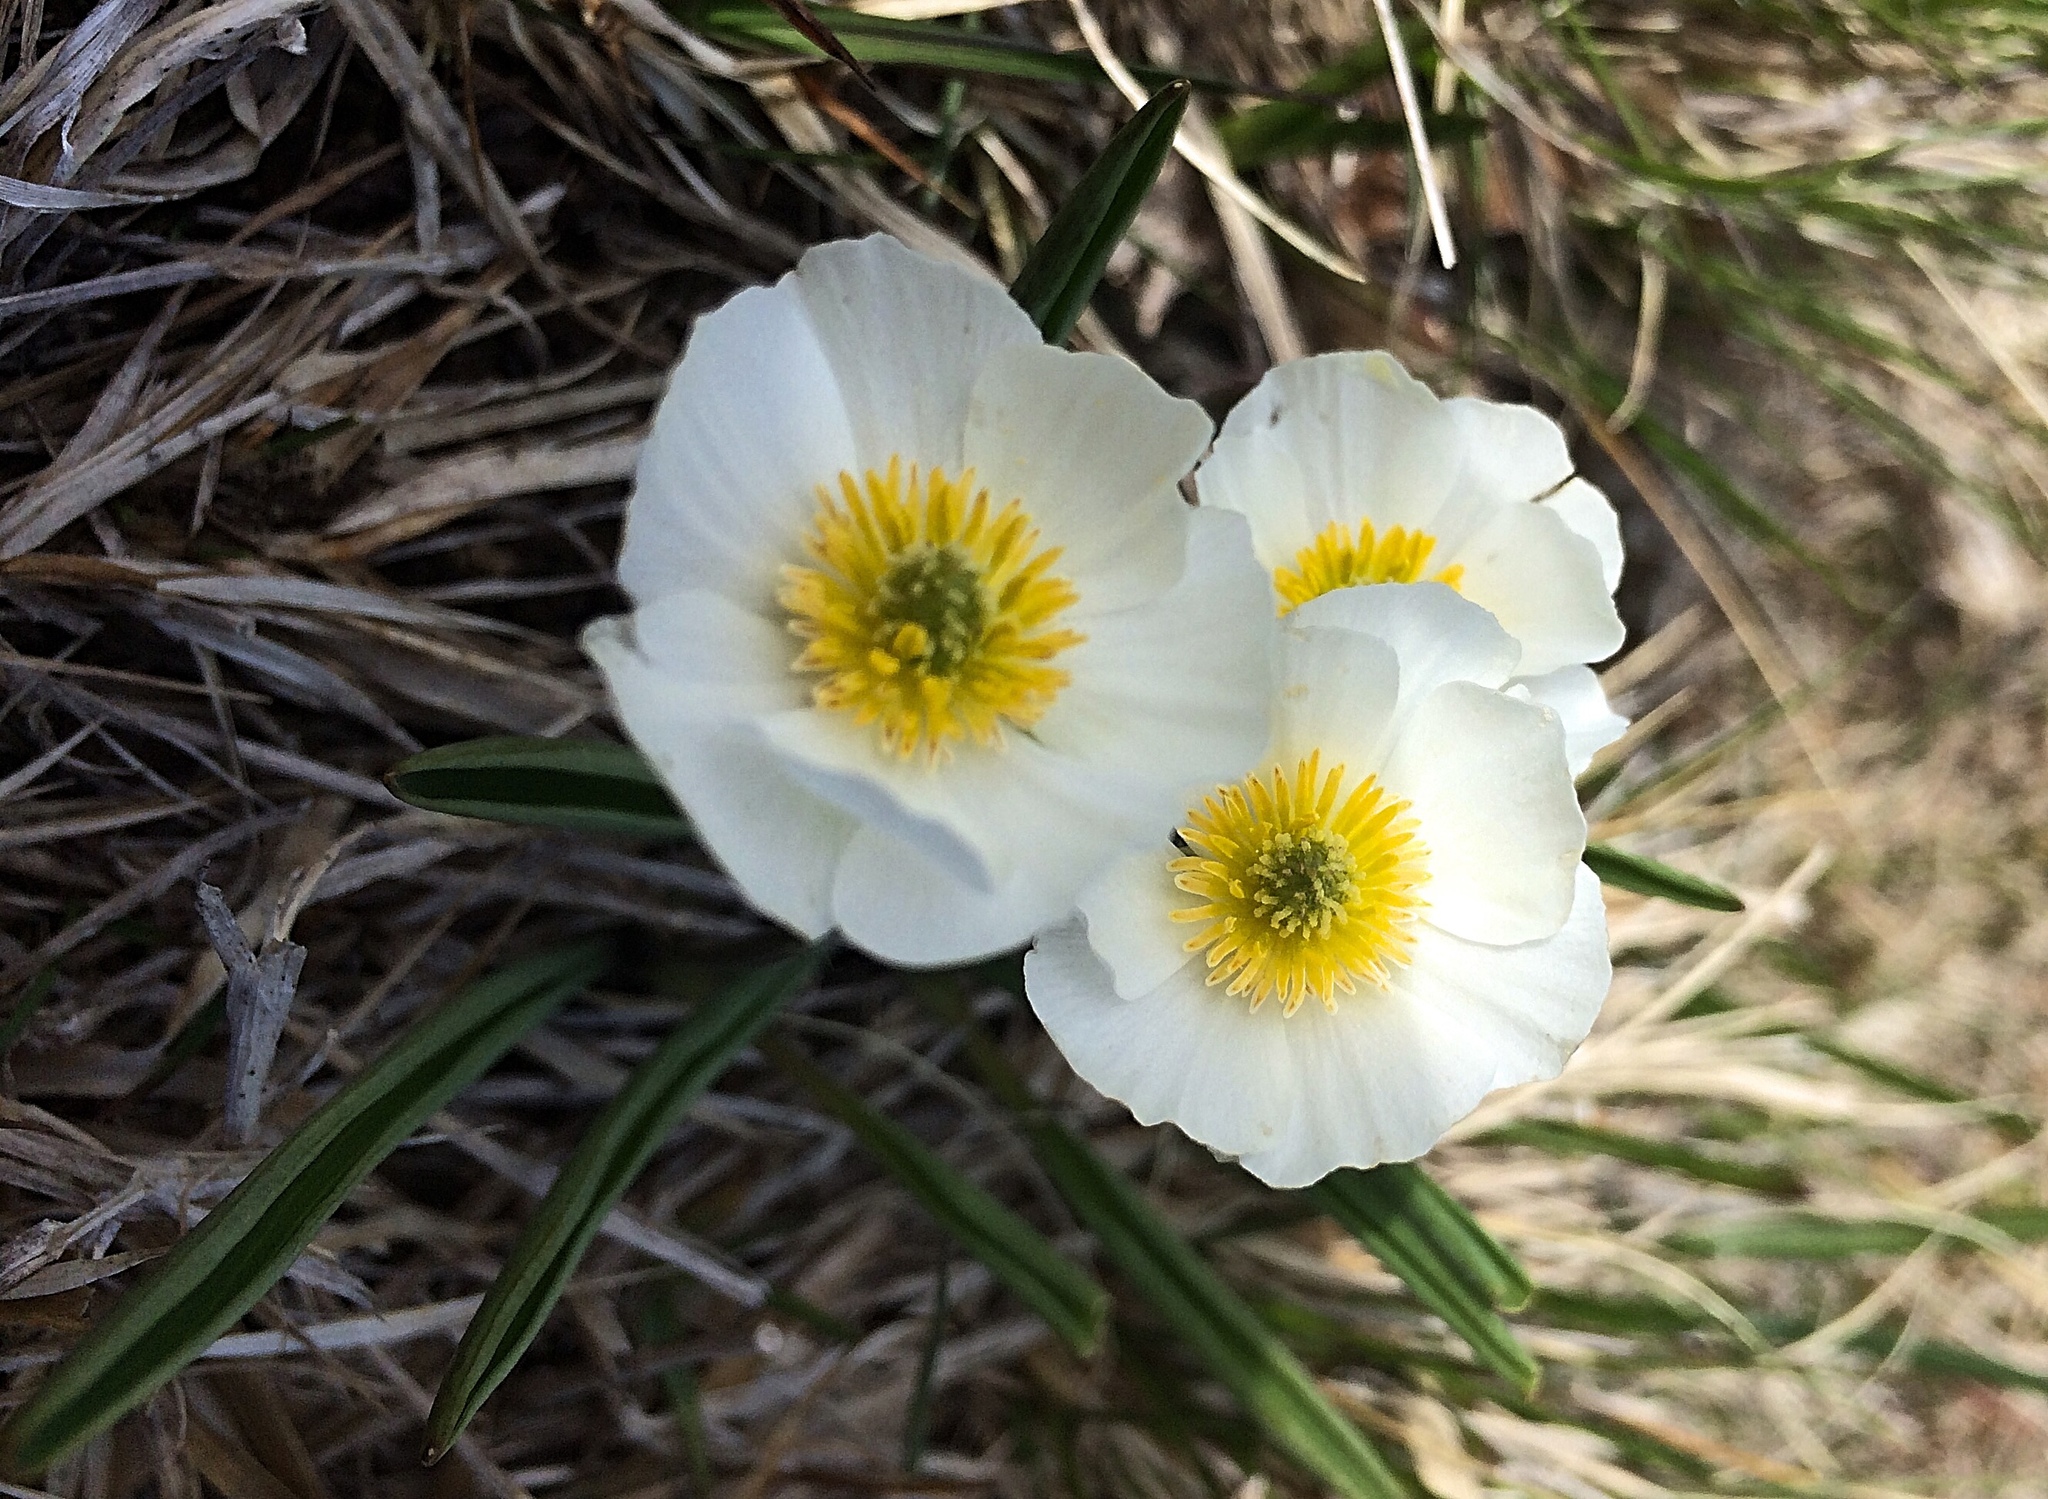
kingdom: Plantae
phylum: Tracheophyta
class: Magnoliopsida
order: Ranunculales
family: Ranunculaceae
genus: Ranunculus
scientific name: Ranunculus kuepferi
